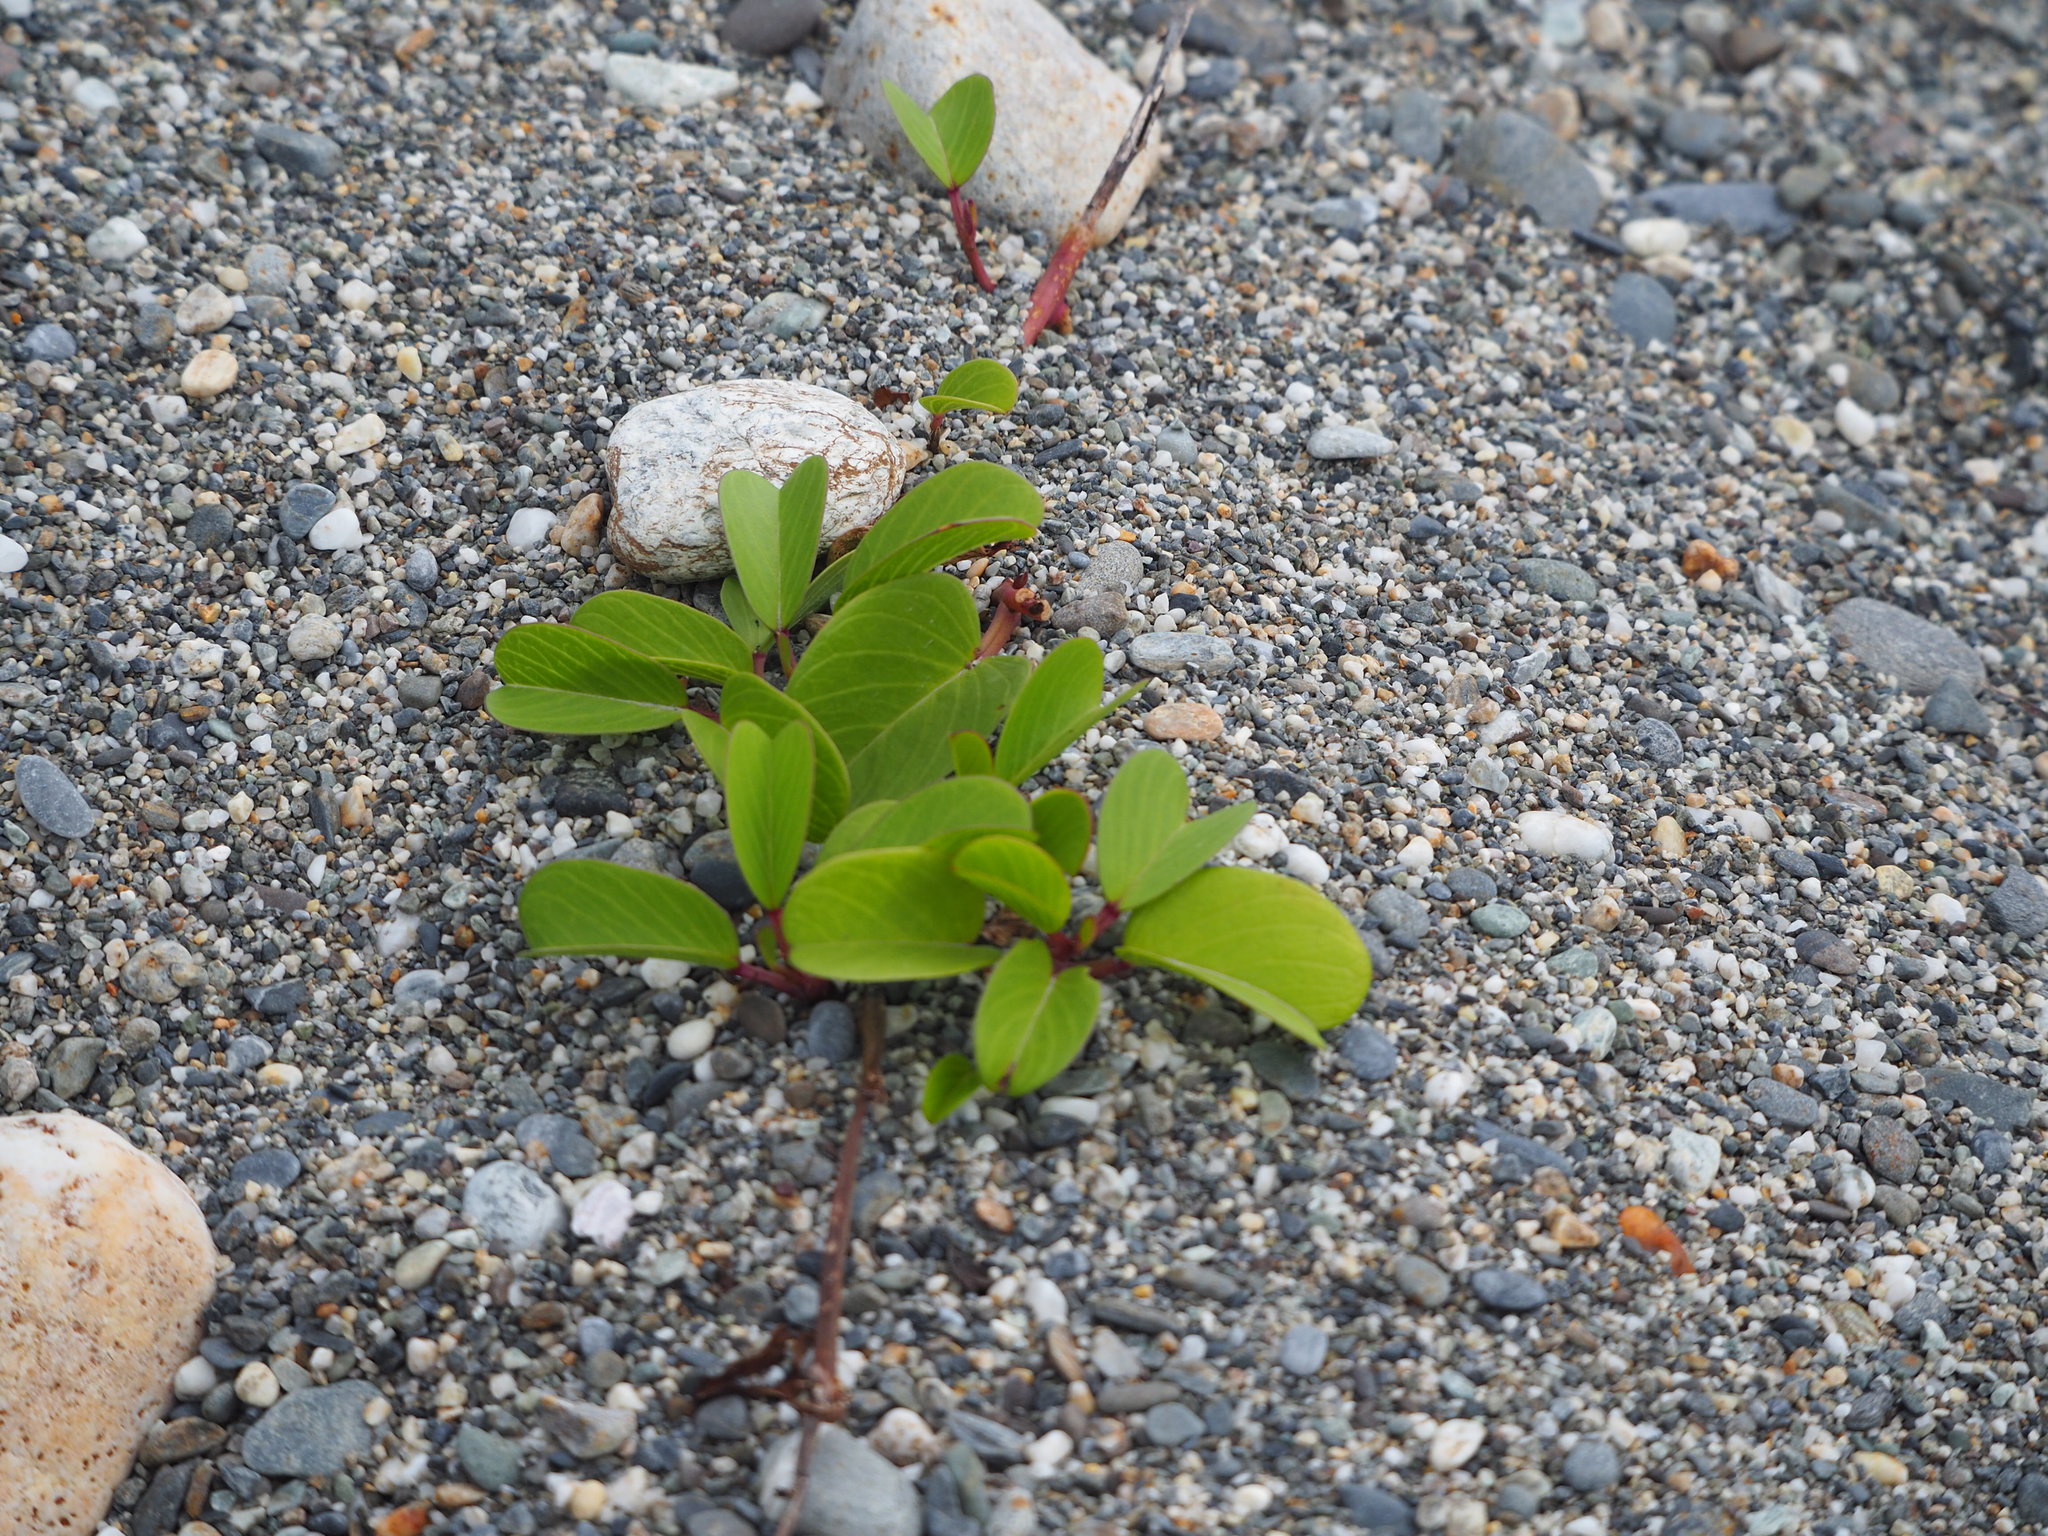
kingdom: Plantae
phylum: Tracheophyta
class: Magnoliopsida
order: Solanales
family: Convolvulaceae
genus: Ipomoea
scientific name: Ipomoea pes-caprae
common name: Beach morning glory
